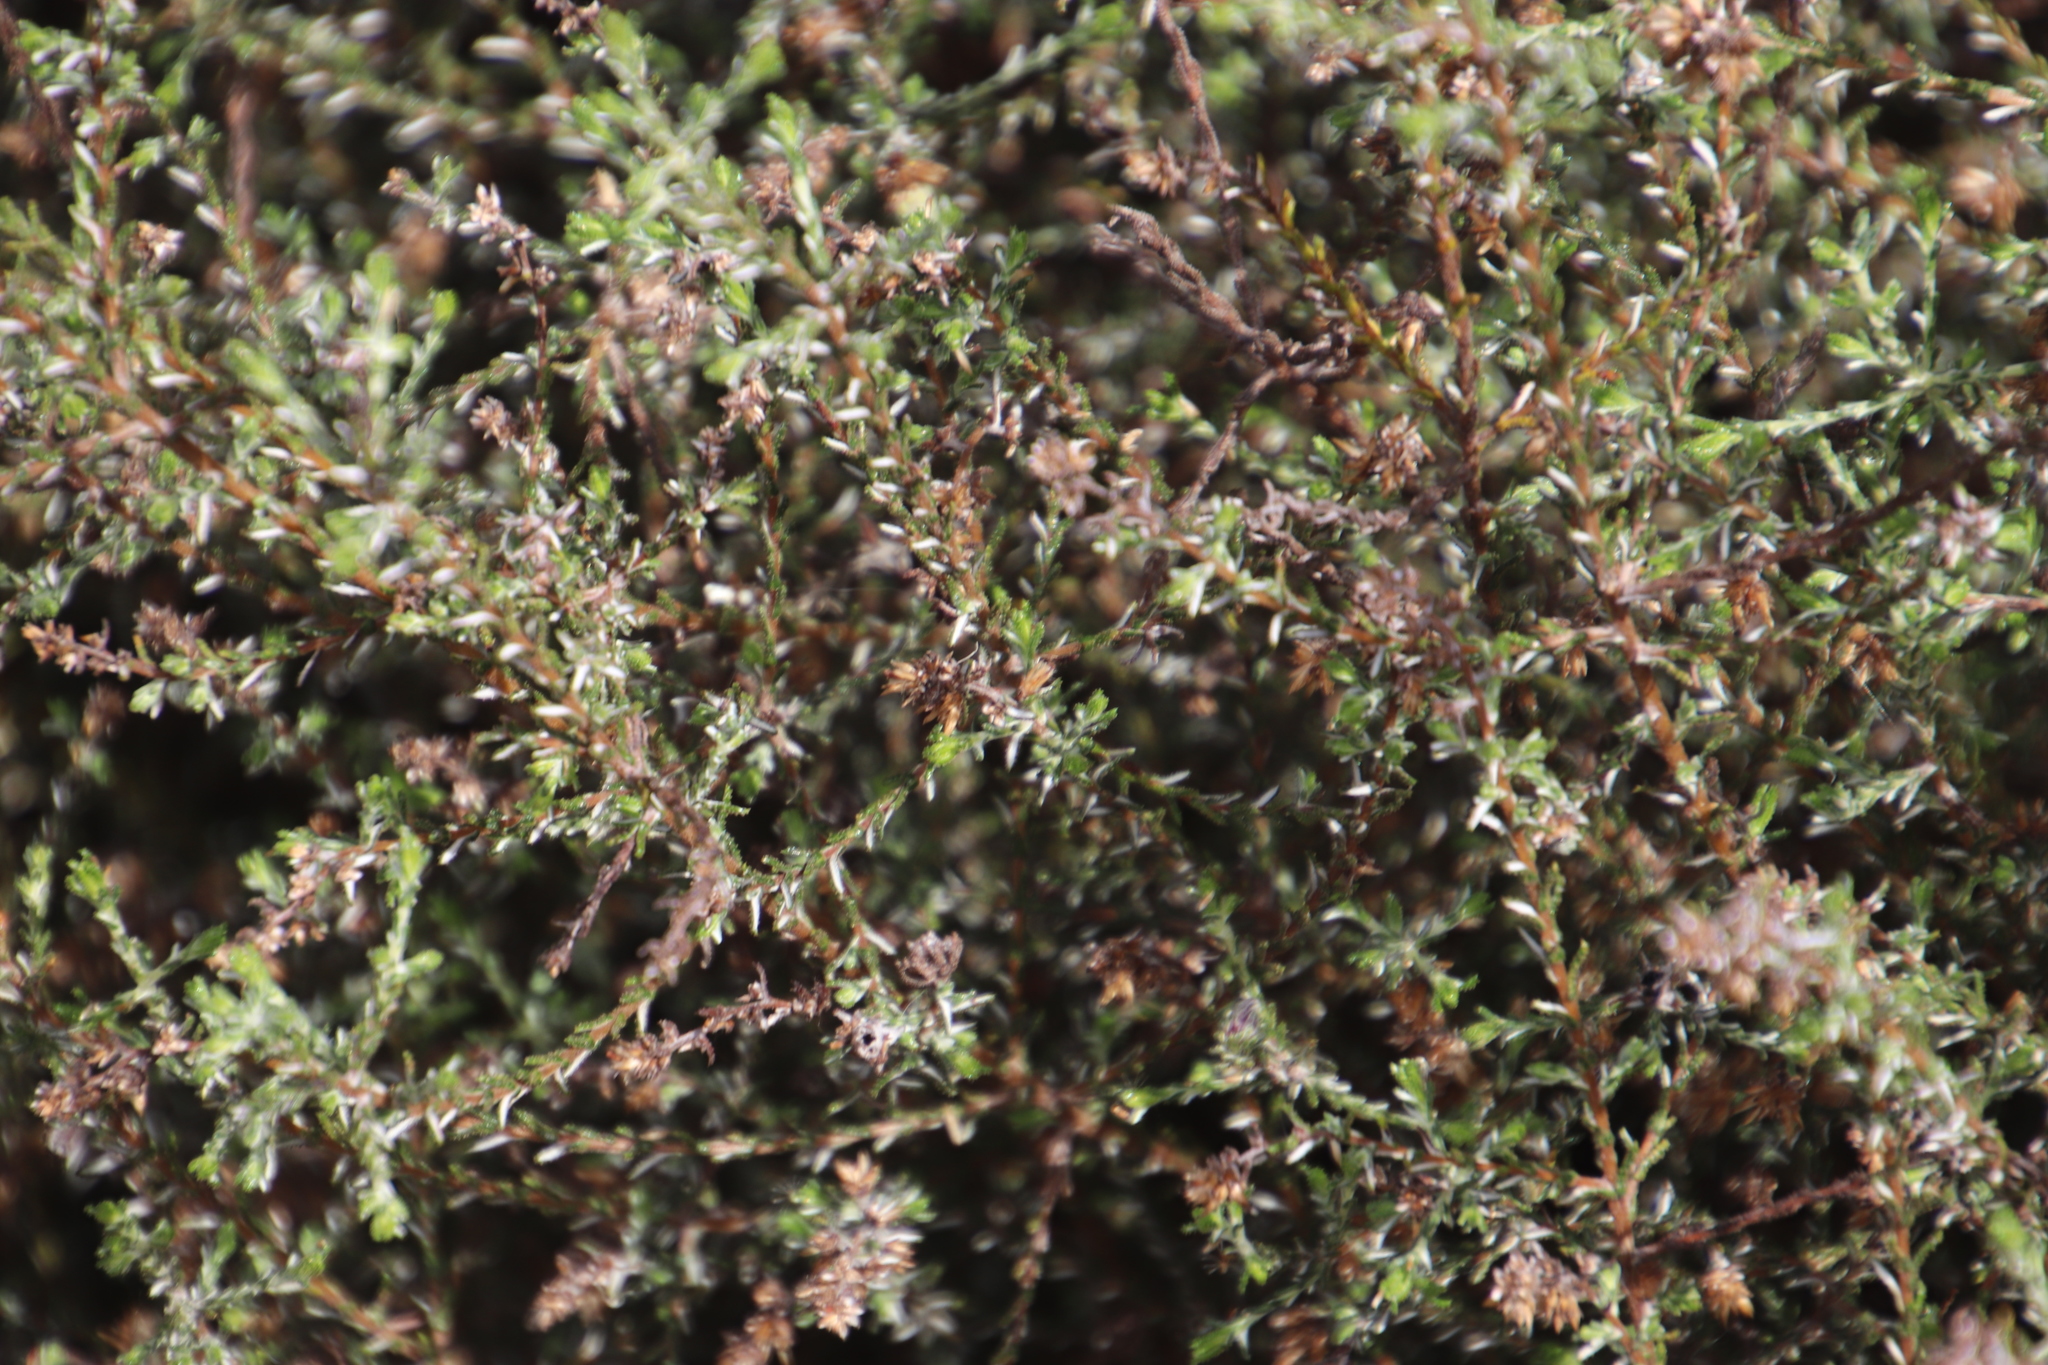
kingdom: Plantae
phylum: Tracheophyta
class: Magnoliopsida
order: Asterales
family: Asteraceae
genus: Myrovernix
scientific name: Myrovernix gnaphaloides
